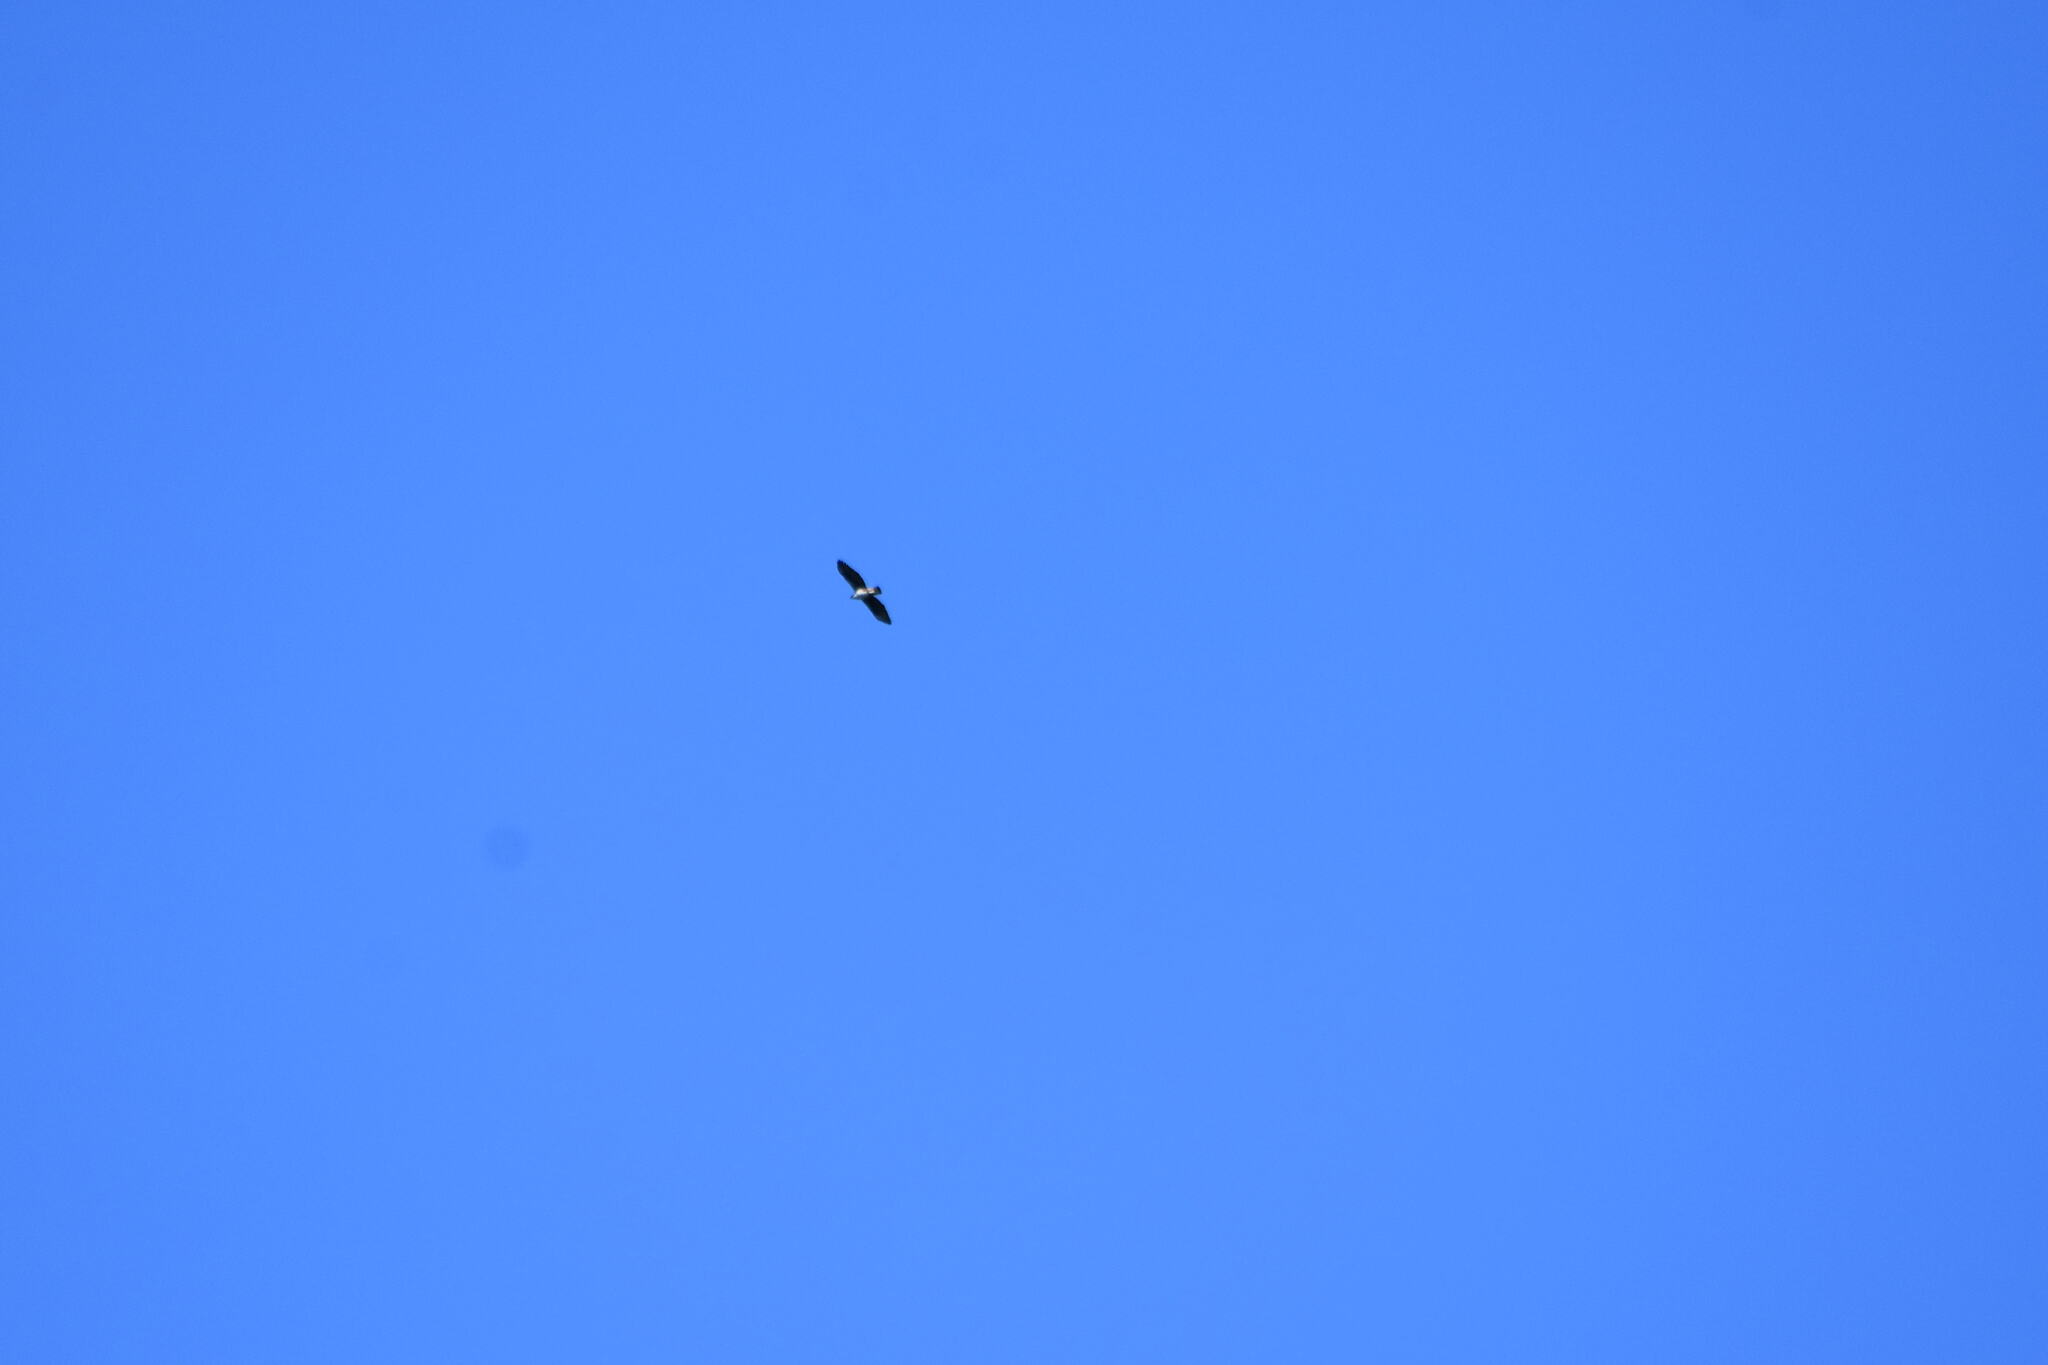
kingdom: Animalia
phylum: Chordata
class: Aves
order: Accipitriformes
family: Accipitridae
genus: Aquila
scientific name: Aquila fasciata
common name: Bonelli's eagle
